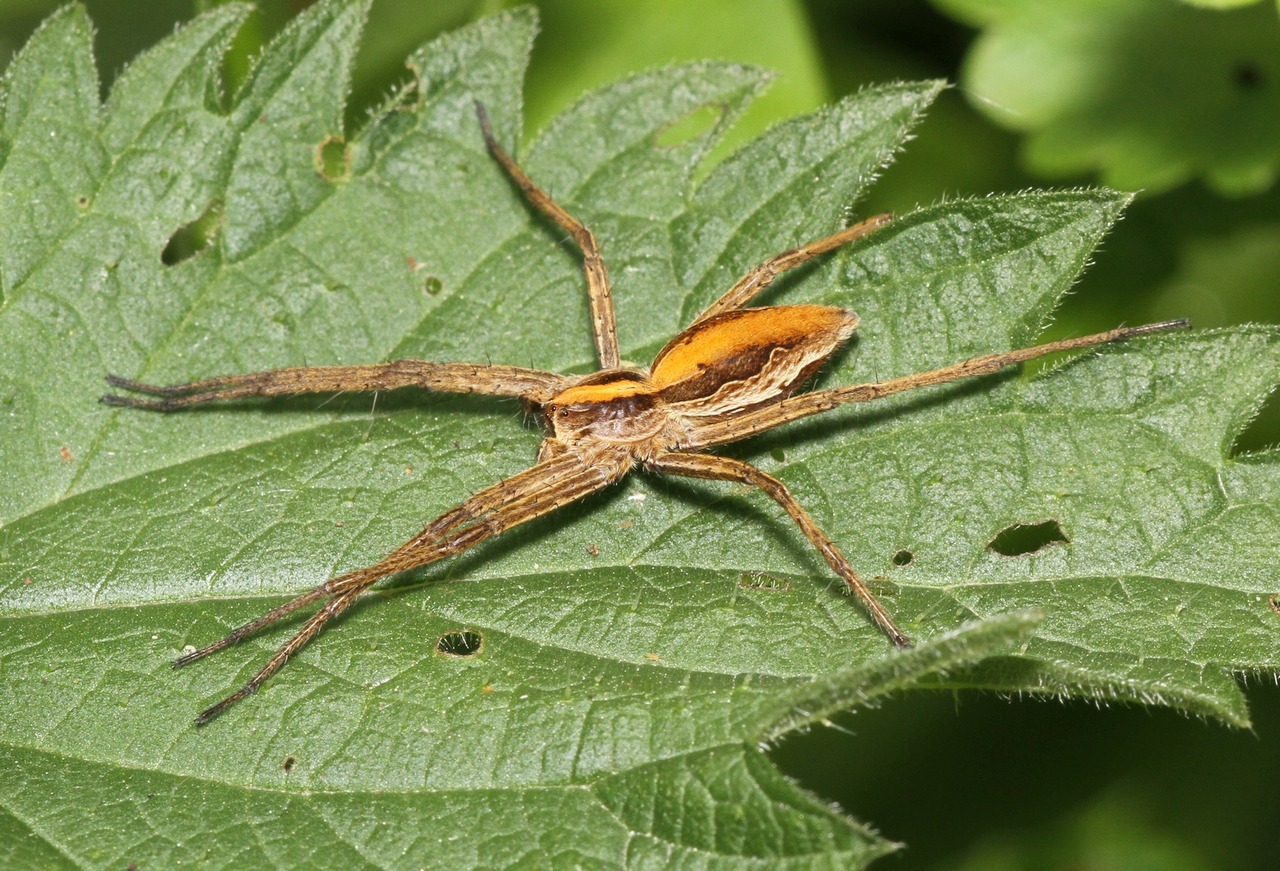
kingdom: Animalia
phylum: Arthropoda
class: Arachnida
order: Araneae
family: Pisauridae
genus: Pisaura
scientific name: Pisaura mirabilis
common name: Tent spider
